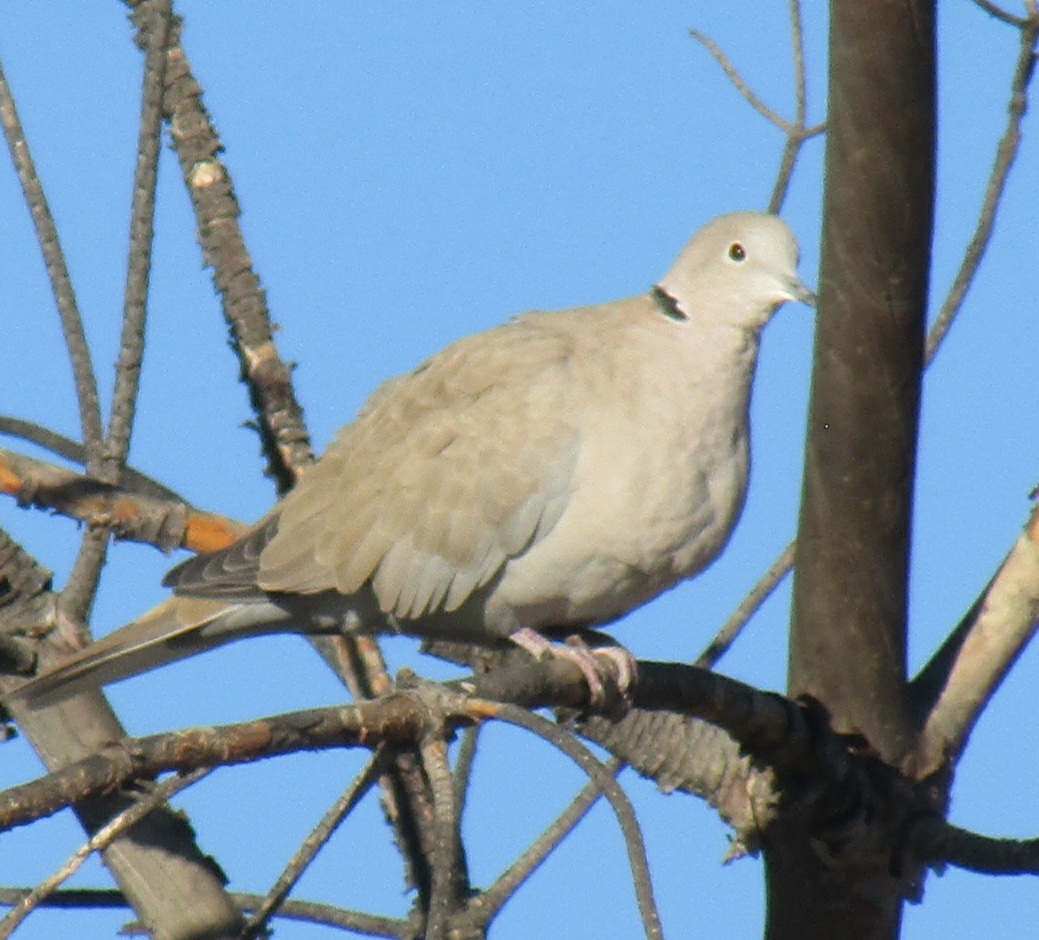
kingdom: Animalia
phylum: Chordata
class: Aves
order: Columbiformes
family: Columbidae
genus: Streptopelia
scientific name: Streptopelia decaocto
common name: Eurasian collared dove
